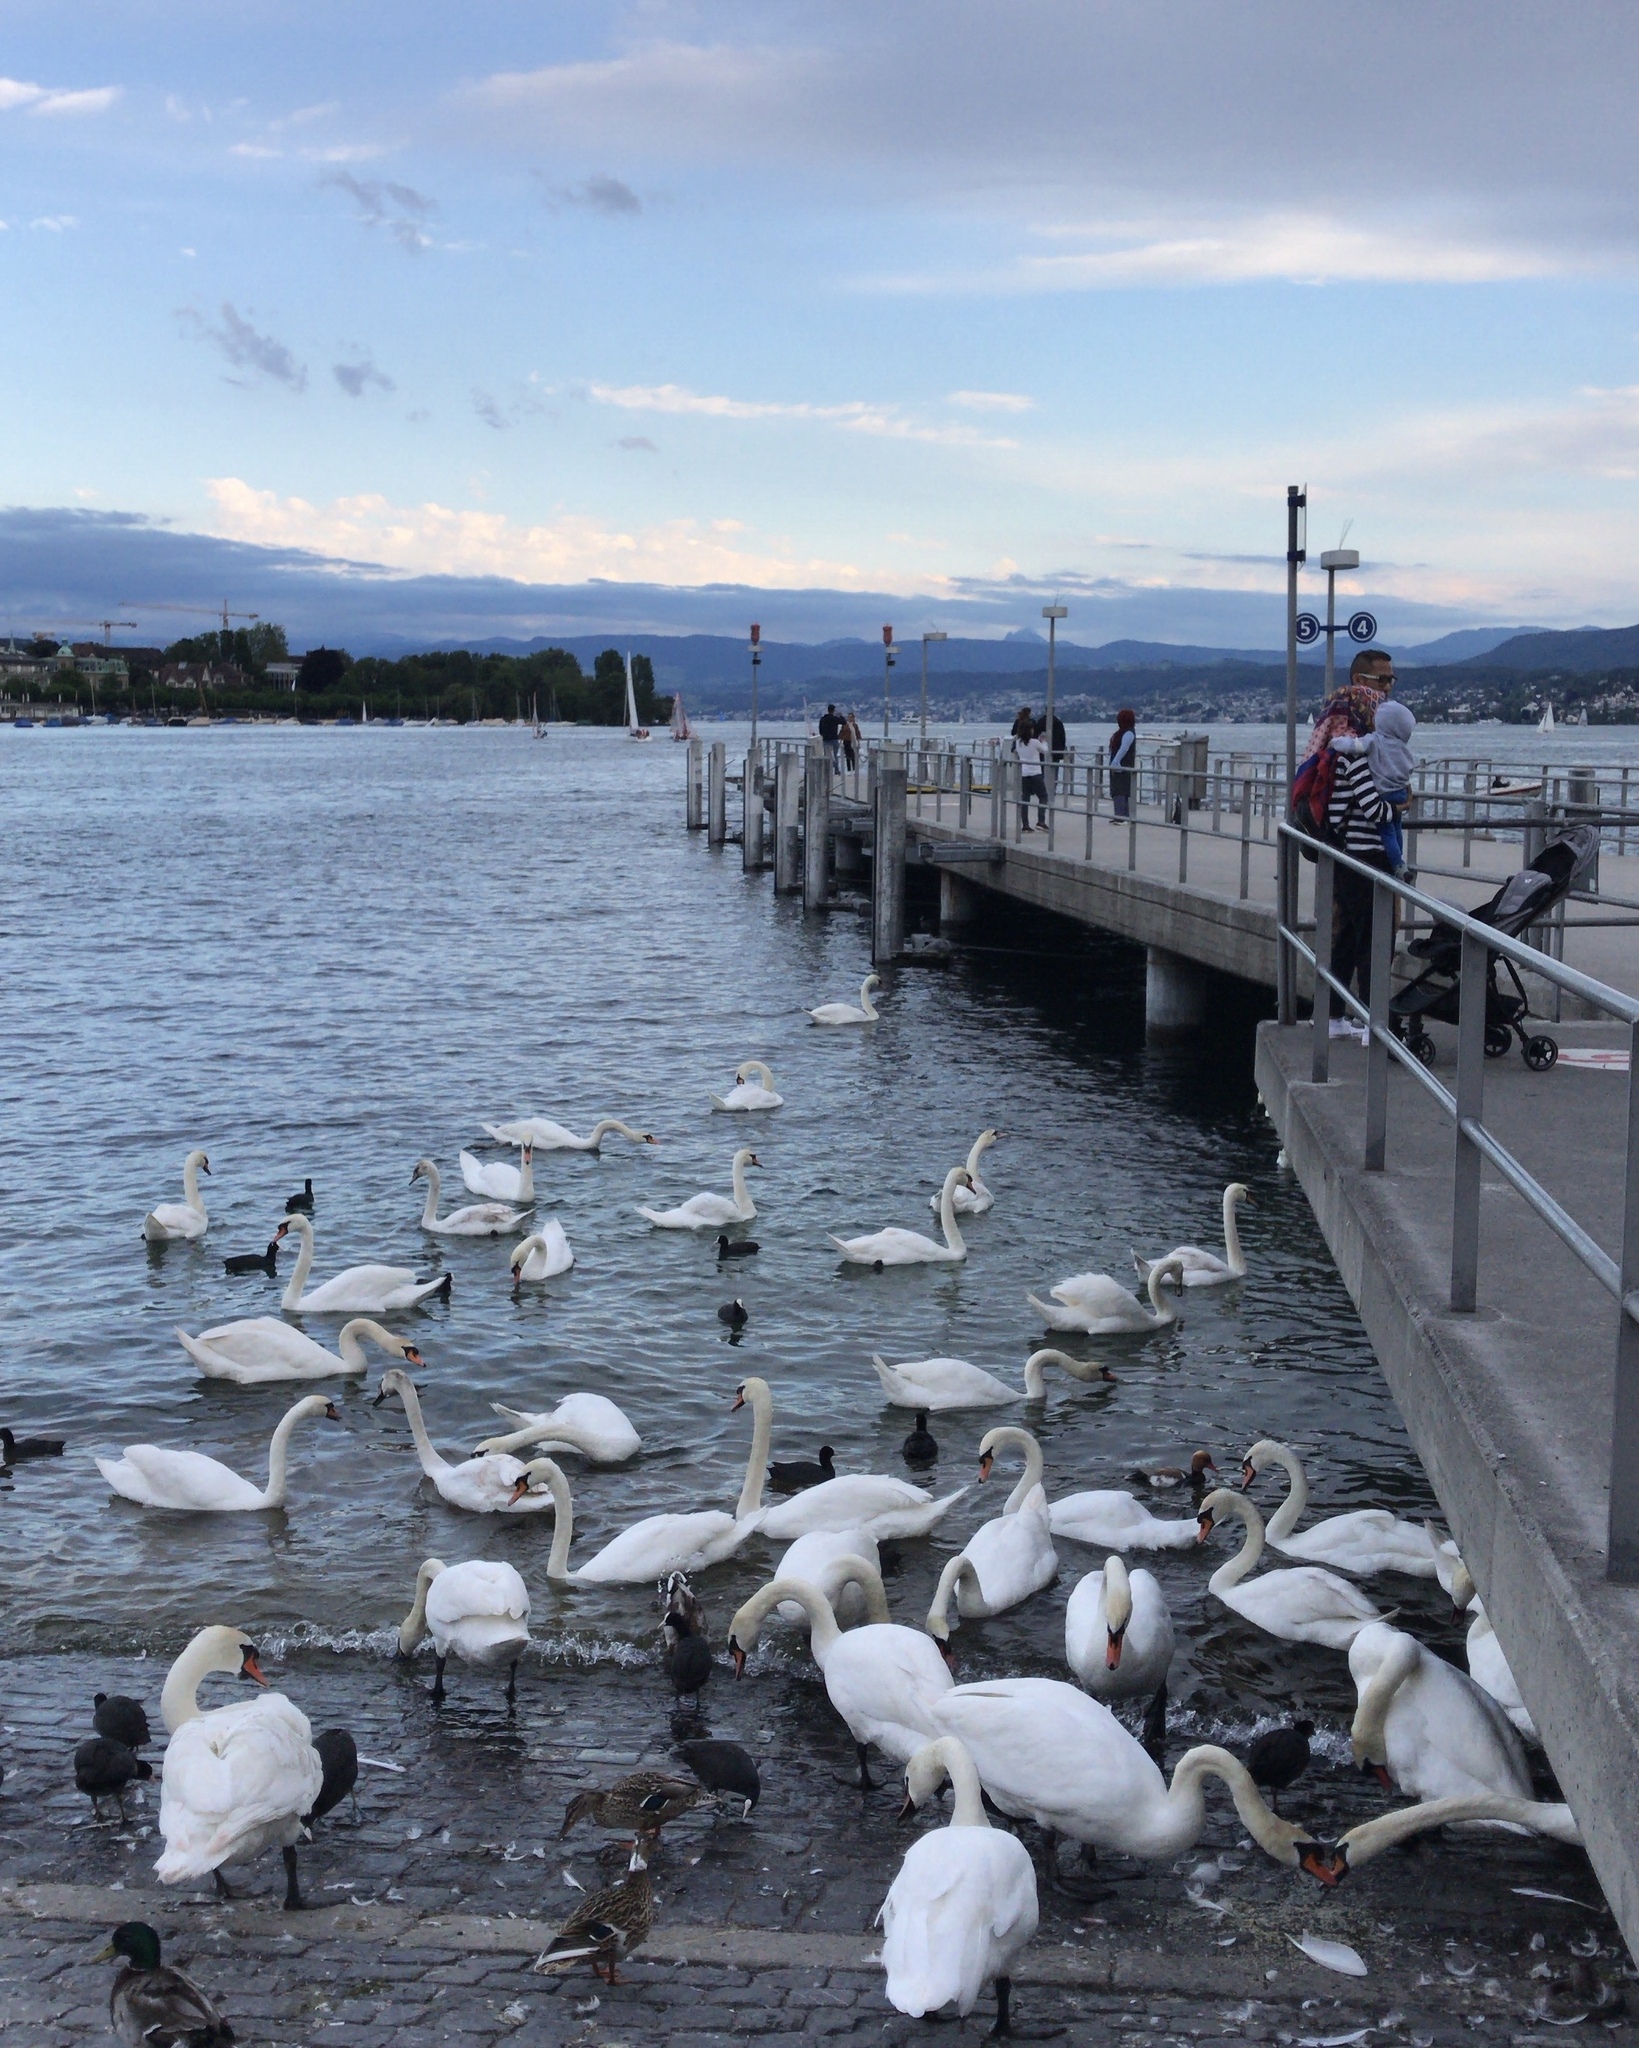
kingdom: Animalia
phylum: Chordata
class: Aves
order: Anseriformes
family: Anatidae
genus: Cygnus
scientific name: Cygnus olor
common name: Mute swan
